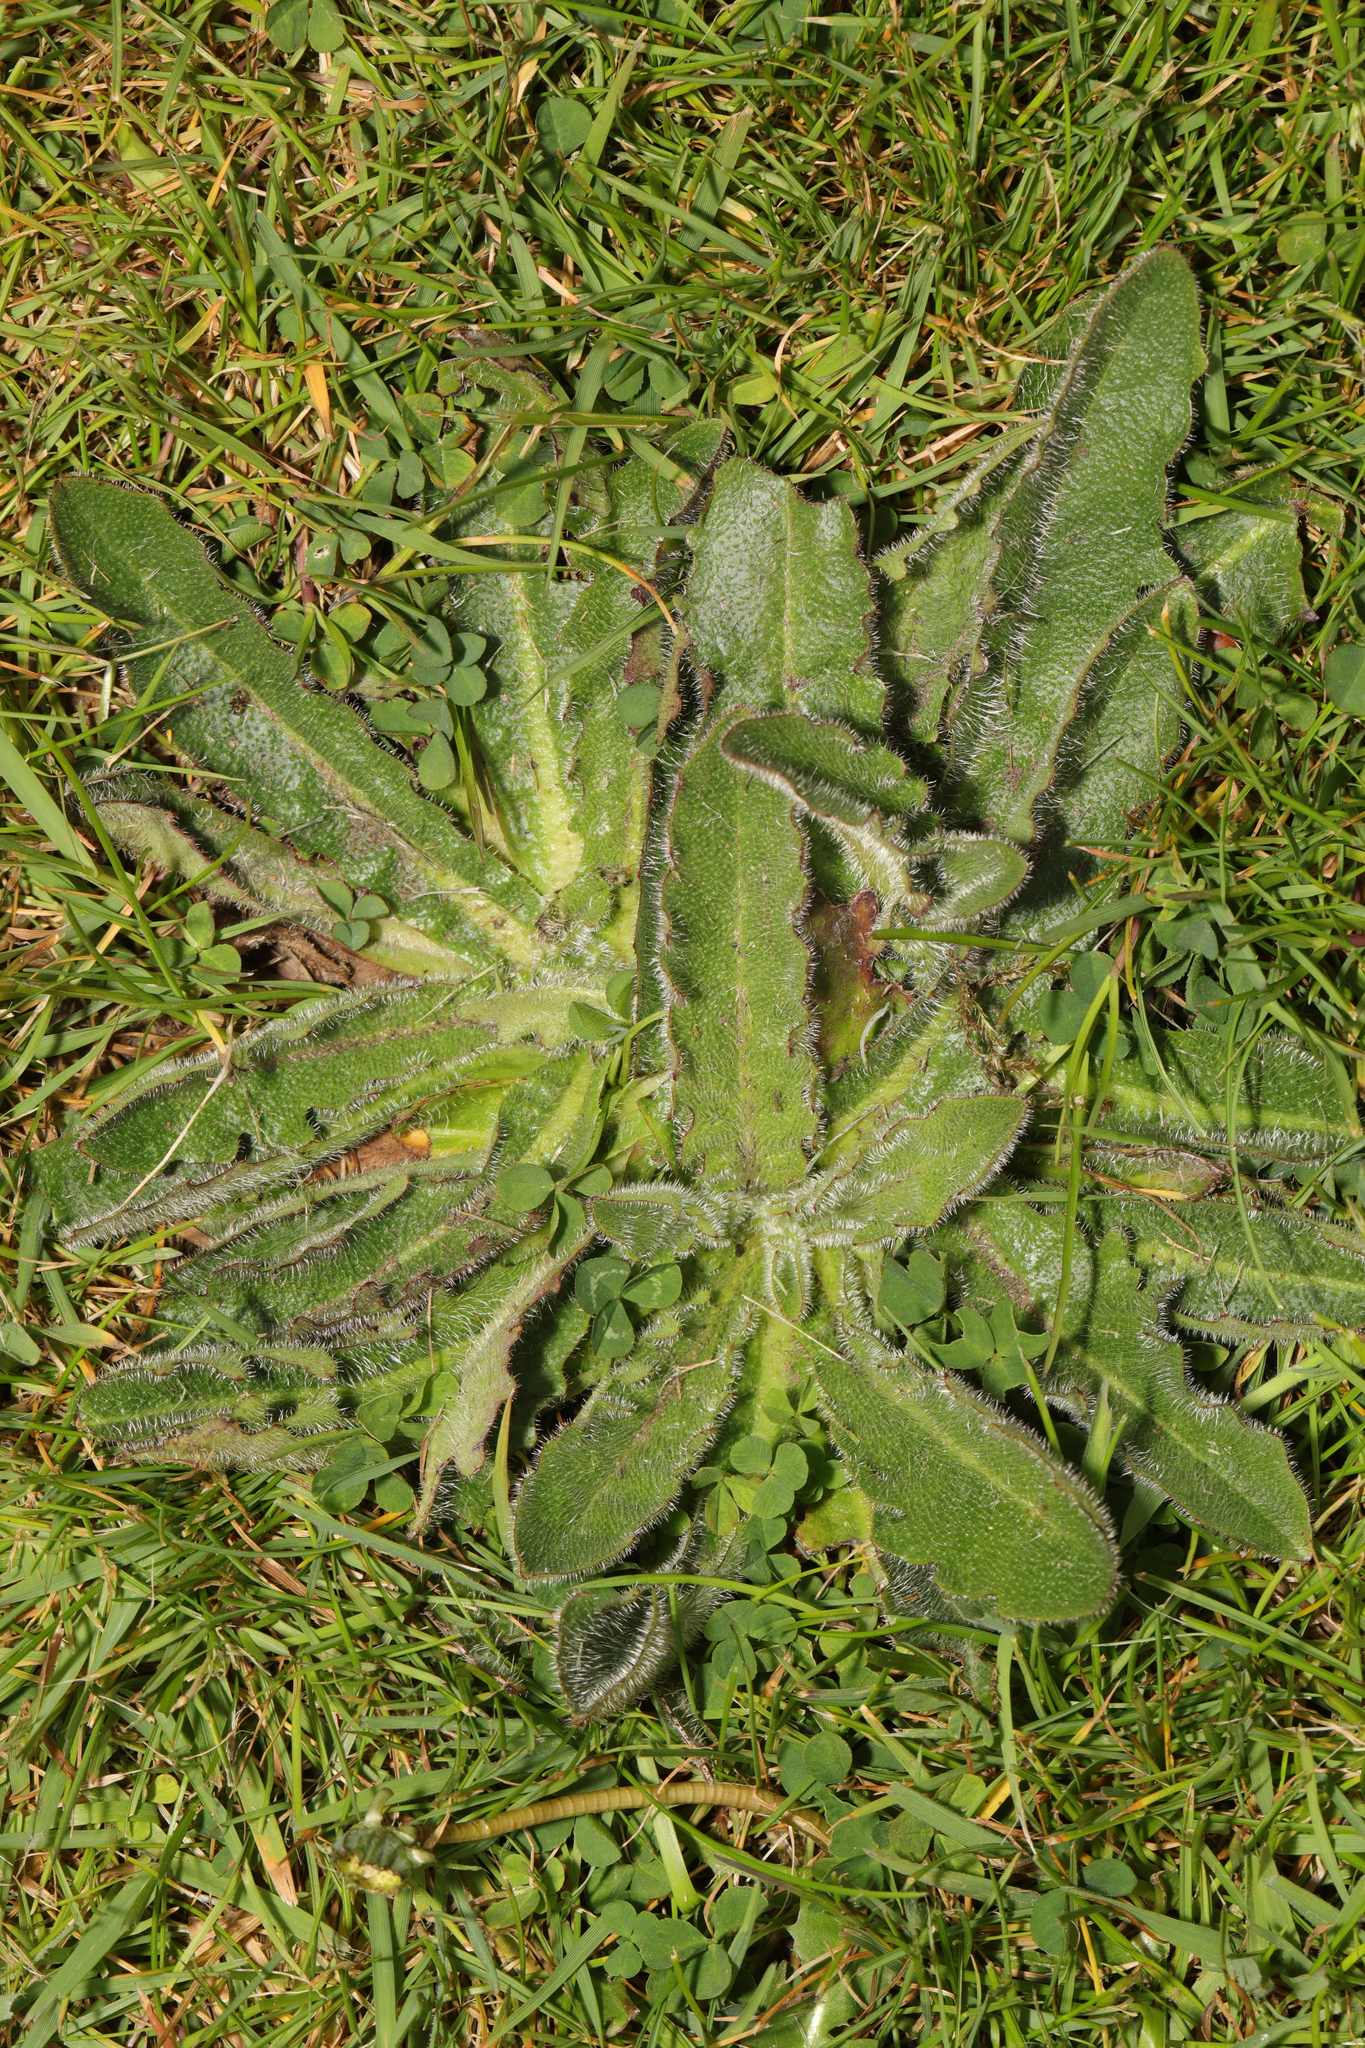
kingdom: Plantae
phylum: Tracheophyta
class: Magnoliopsida
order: Asterales
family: Asteraceae
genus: Hypochaeris
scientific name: Hypochaeris radicata
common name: Flatweed
